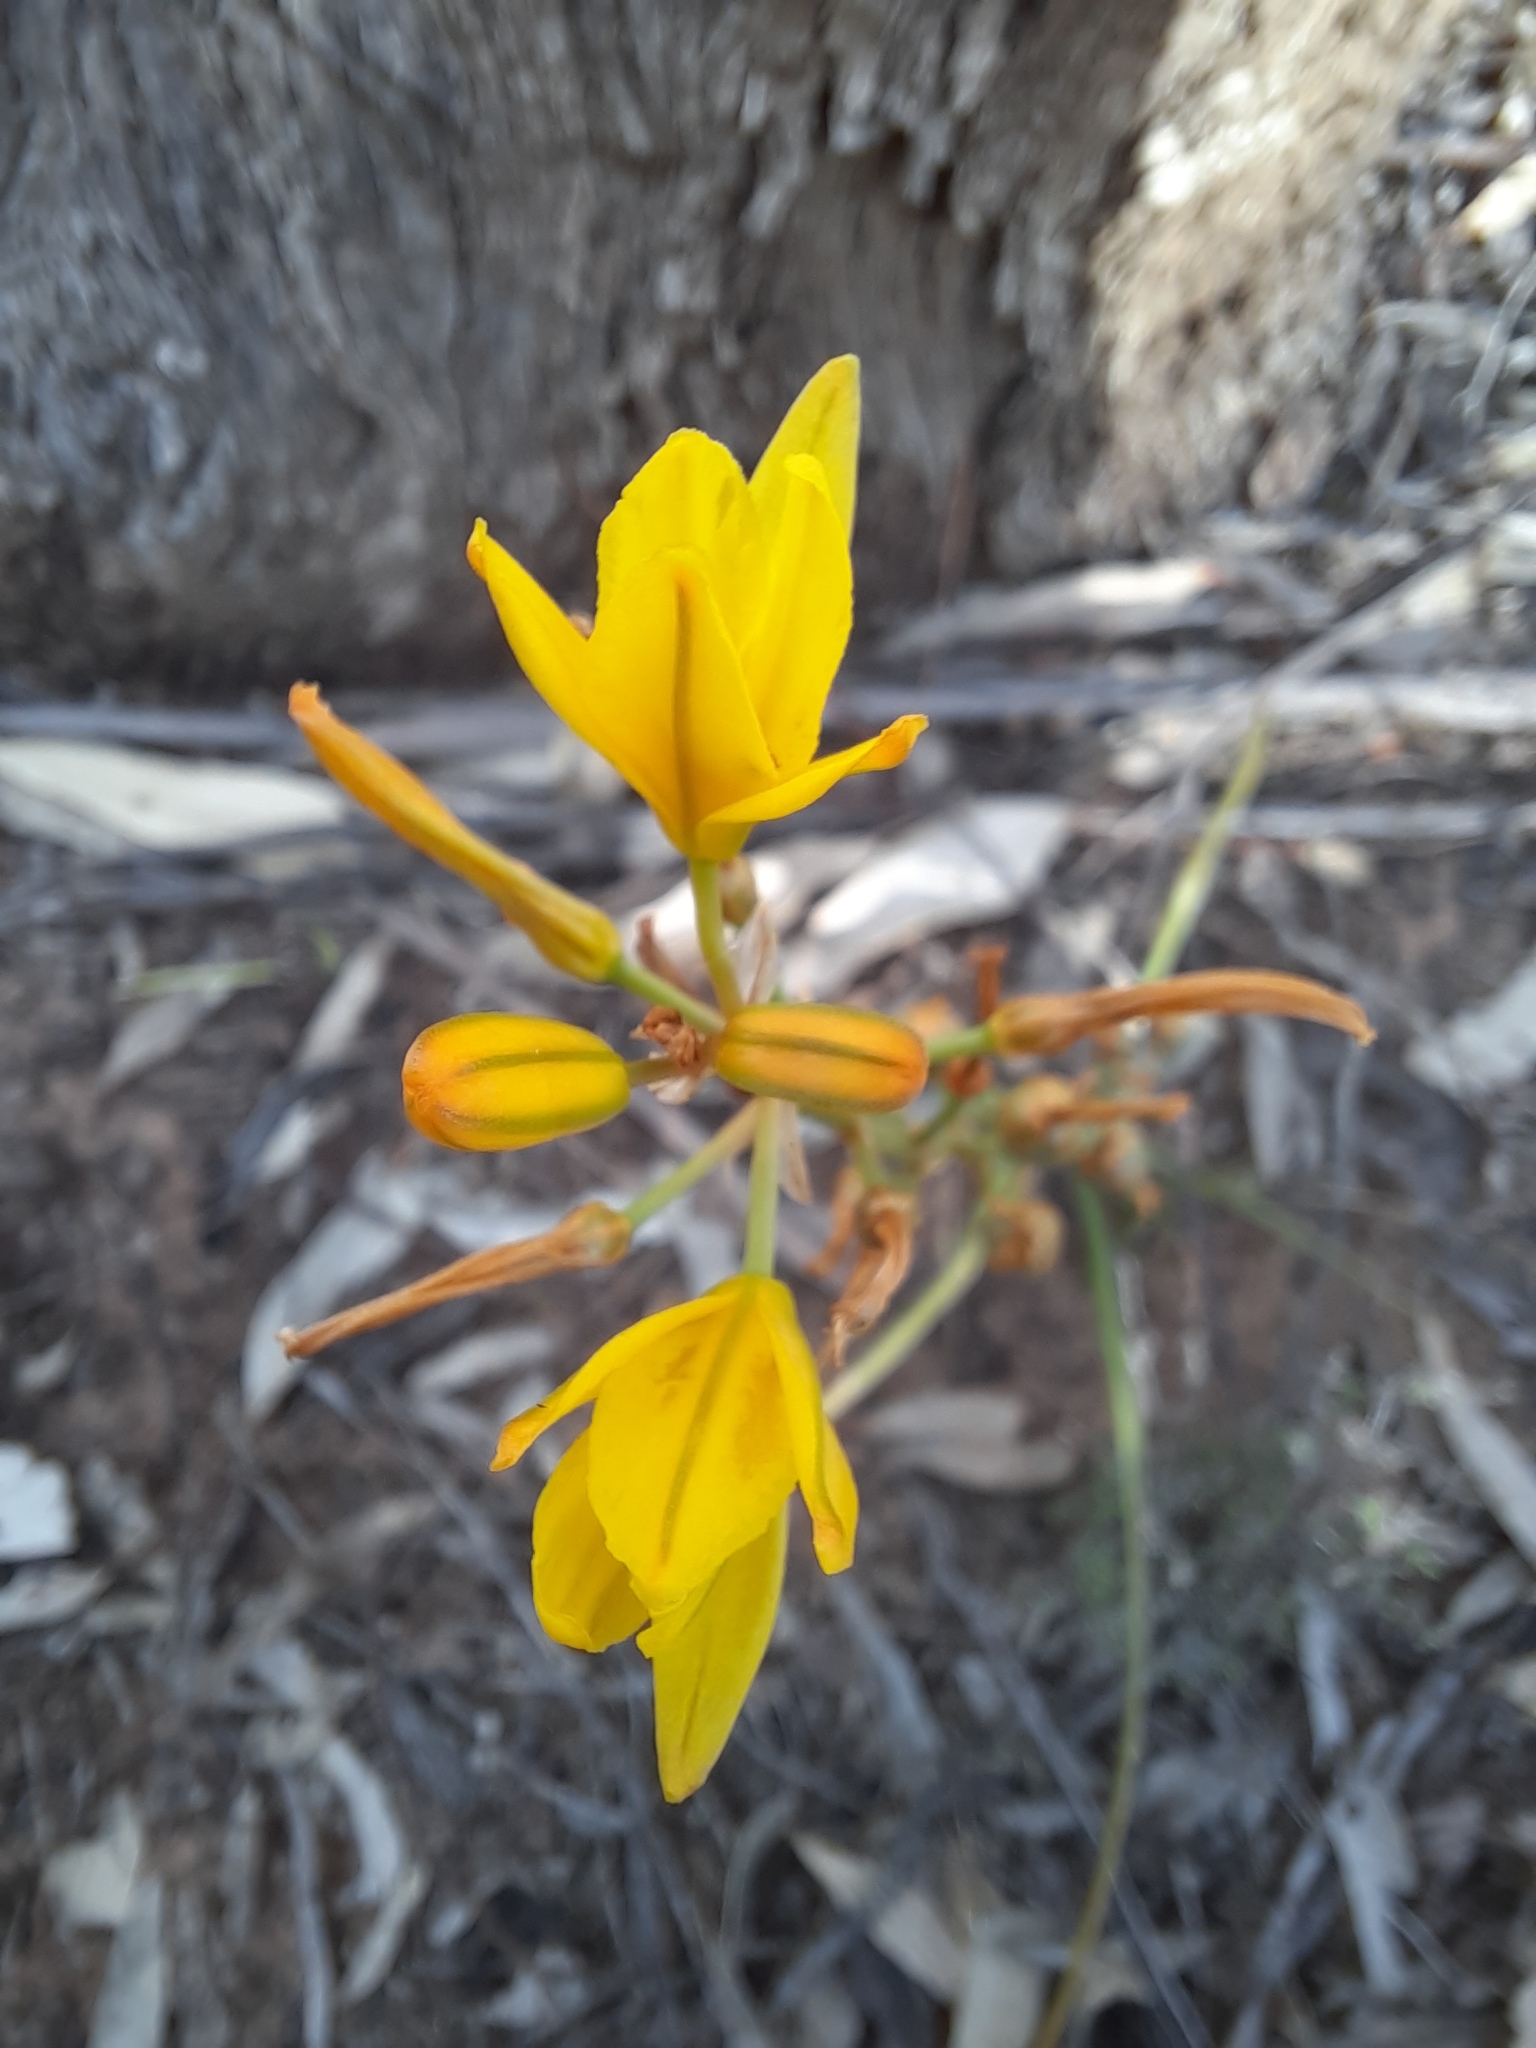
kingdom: Plantae
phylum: Tracheophyta
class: Liliopsida
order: Asparagales
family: Asphodelaceae
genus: Bulbine
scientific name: Bulbine bulbosa
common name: Golden-lily
